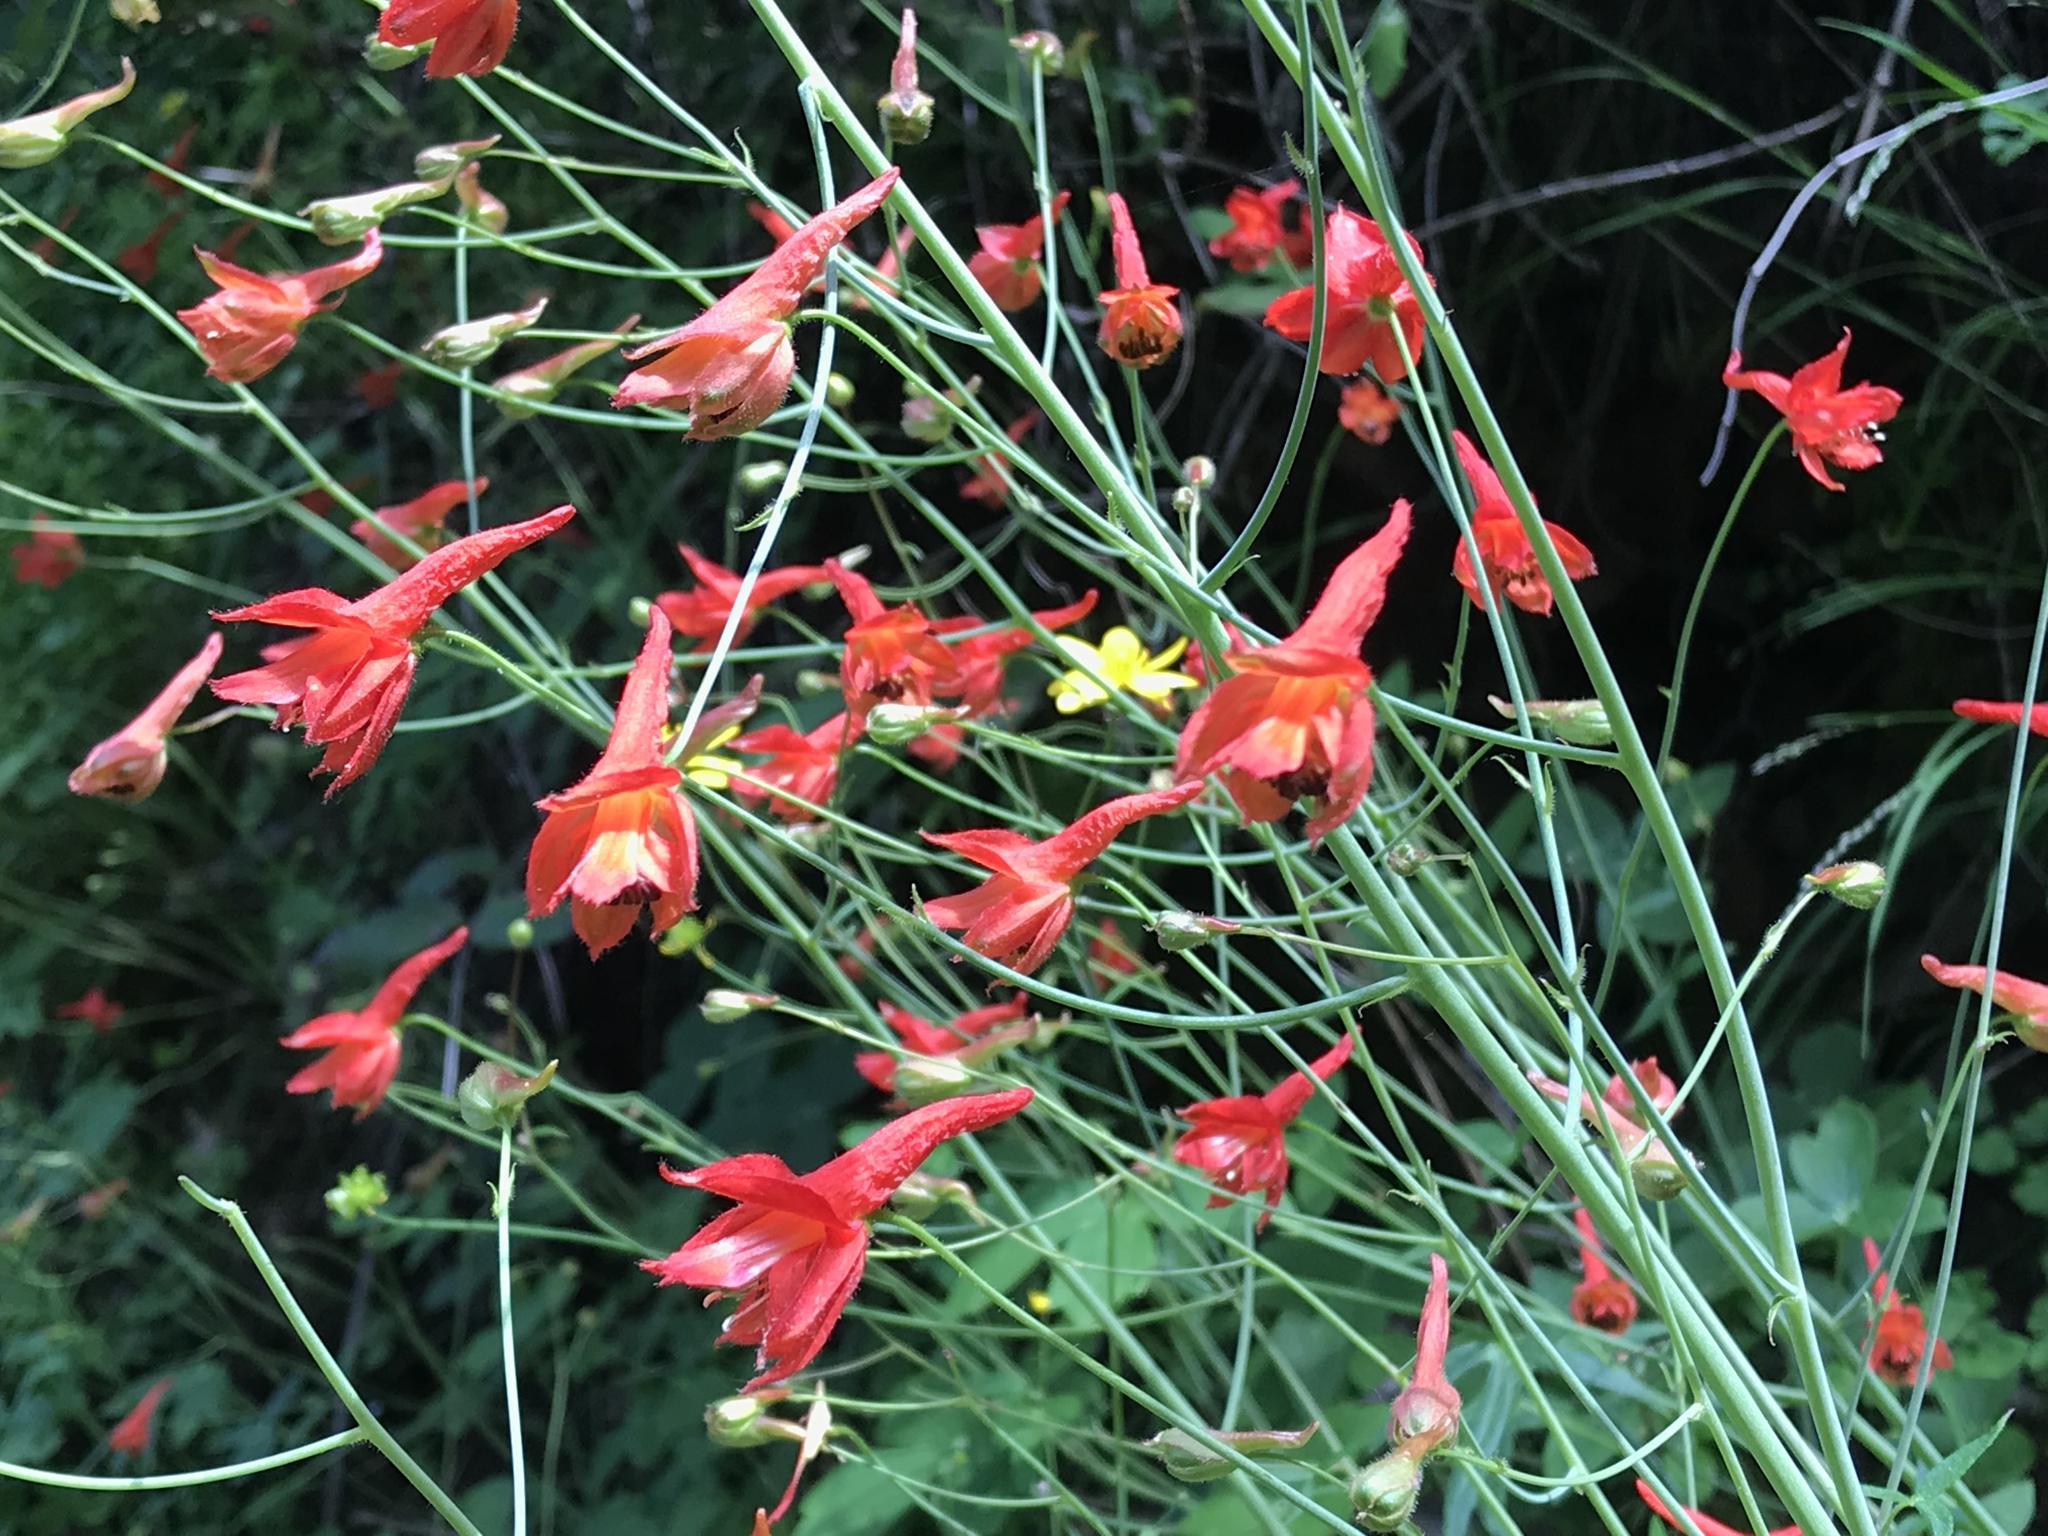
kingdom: Plantae
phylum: Tracheophyta
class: Magnoliopsida
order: Ranunculales
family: Ranunculaceae
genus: Delphinium
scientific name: Delphinium nudicaule
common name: Red larkspur
